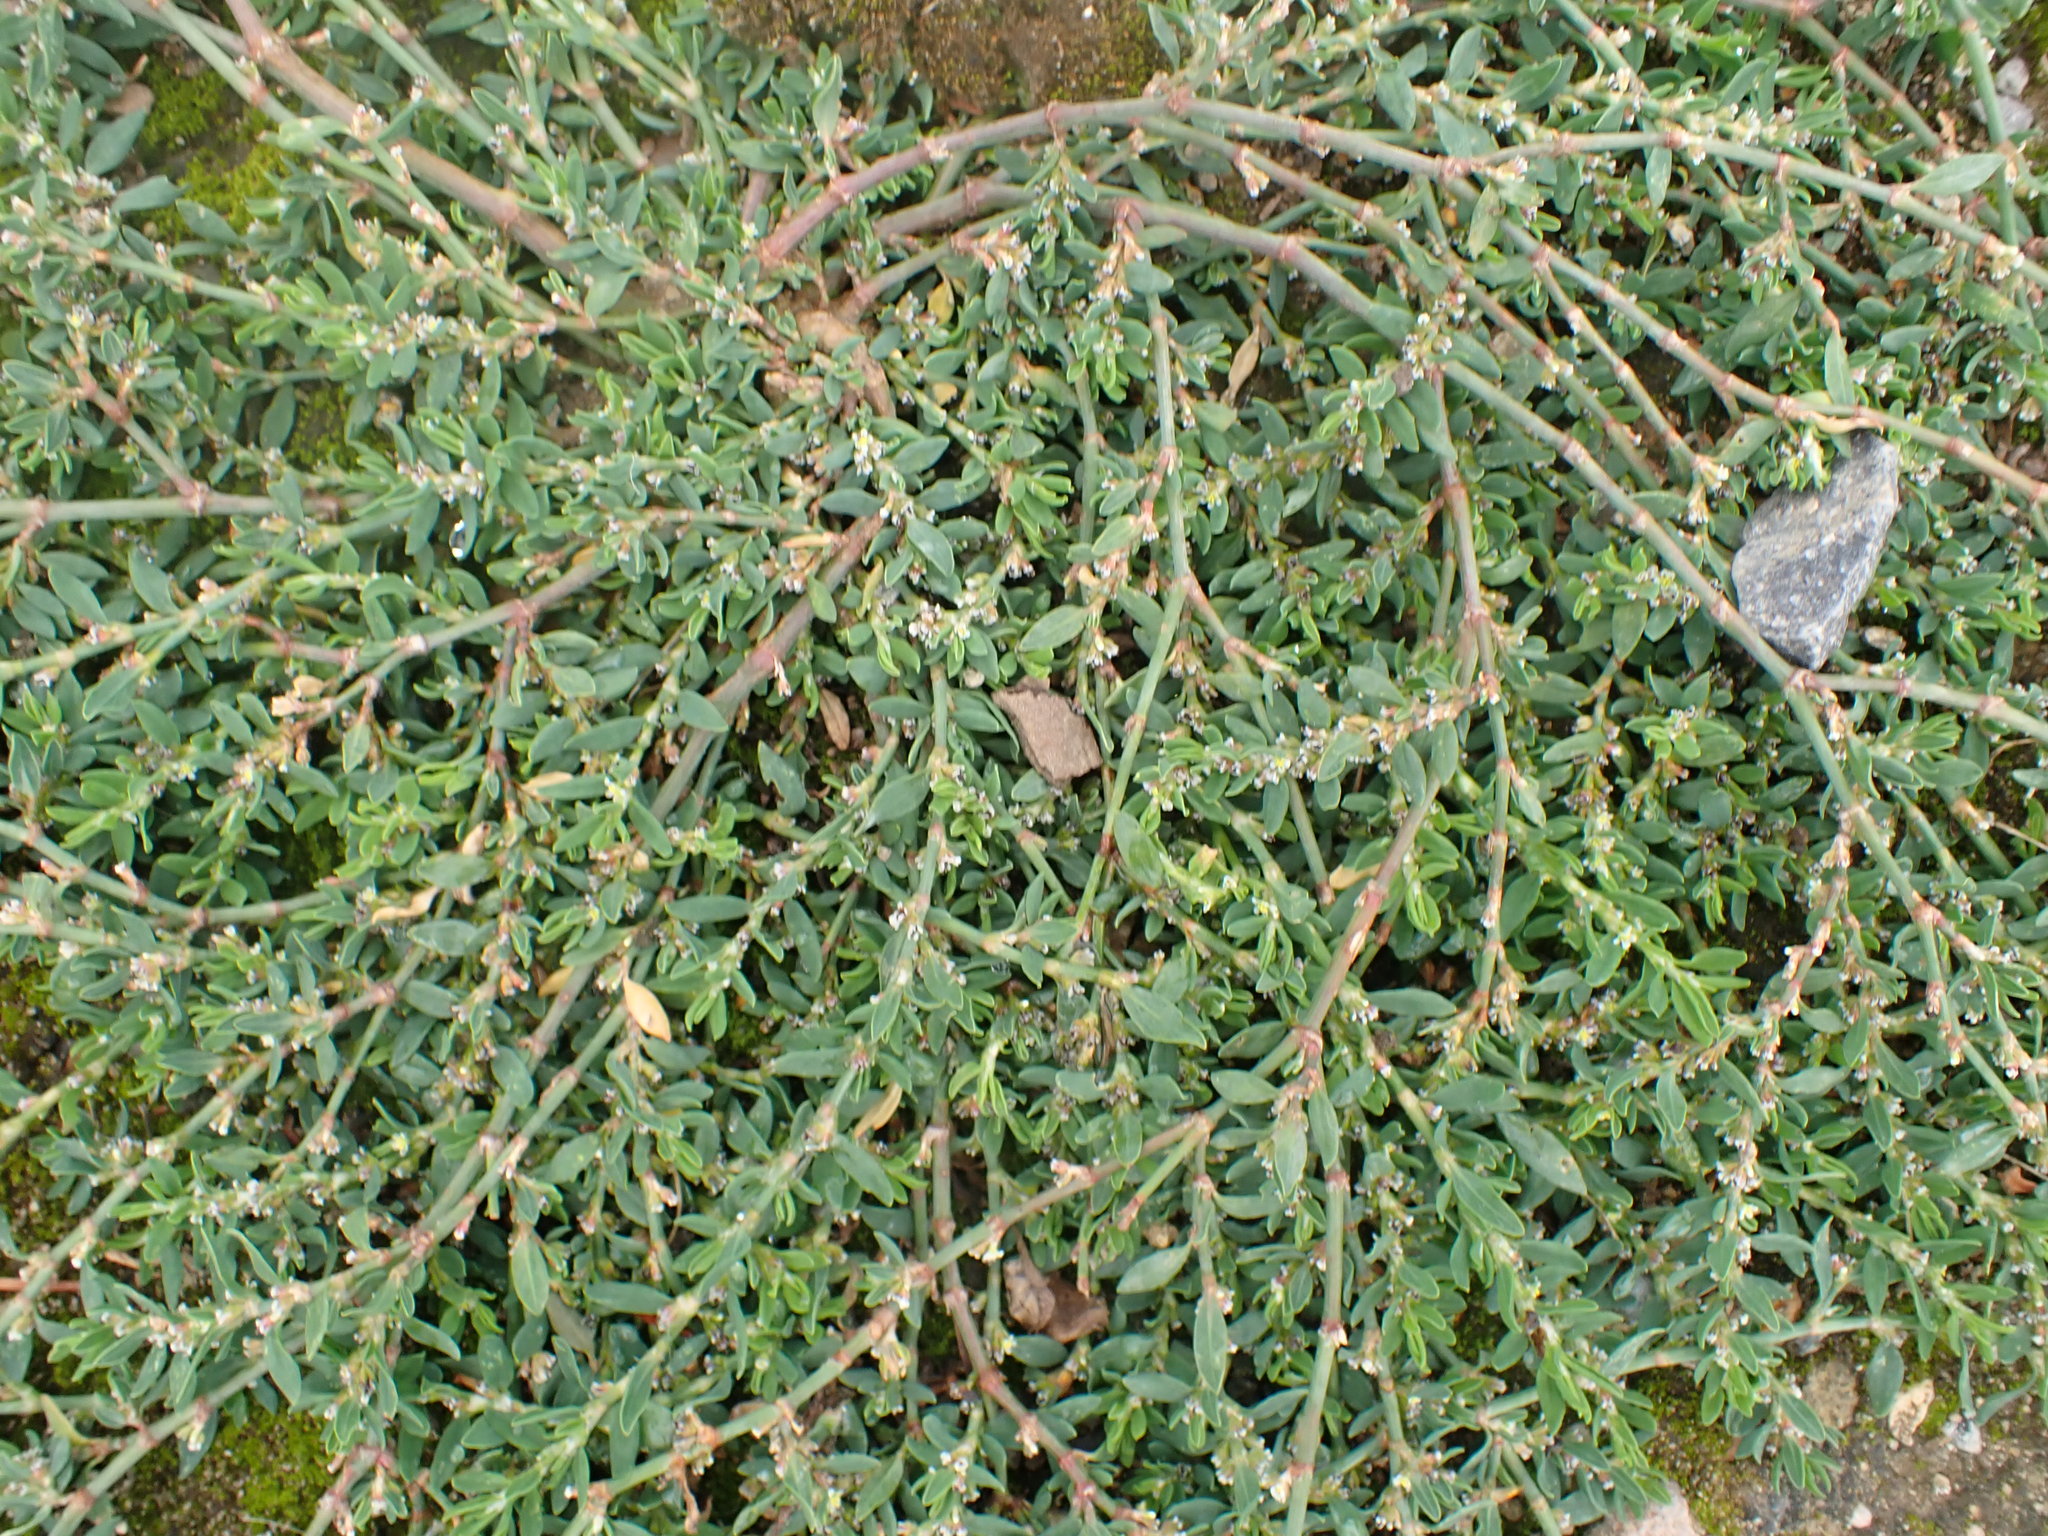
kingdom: Plantae
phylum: Tracheophyta
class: Magnoliopsida
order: Caryophyllales
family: Polygonaceae
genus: Polygonum
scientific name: Polygonum arenastrum
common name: Equal-leaved knotgrass
